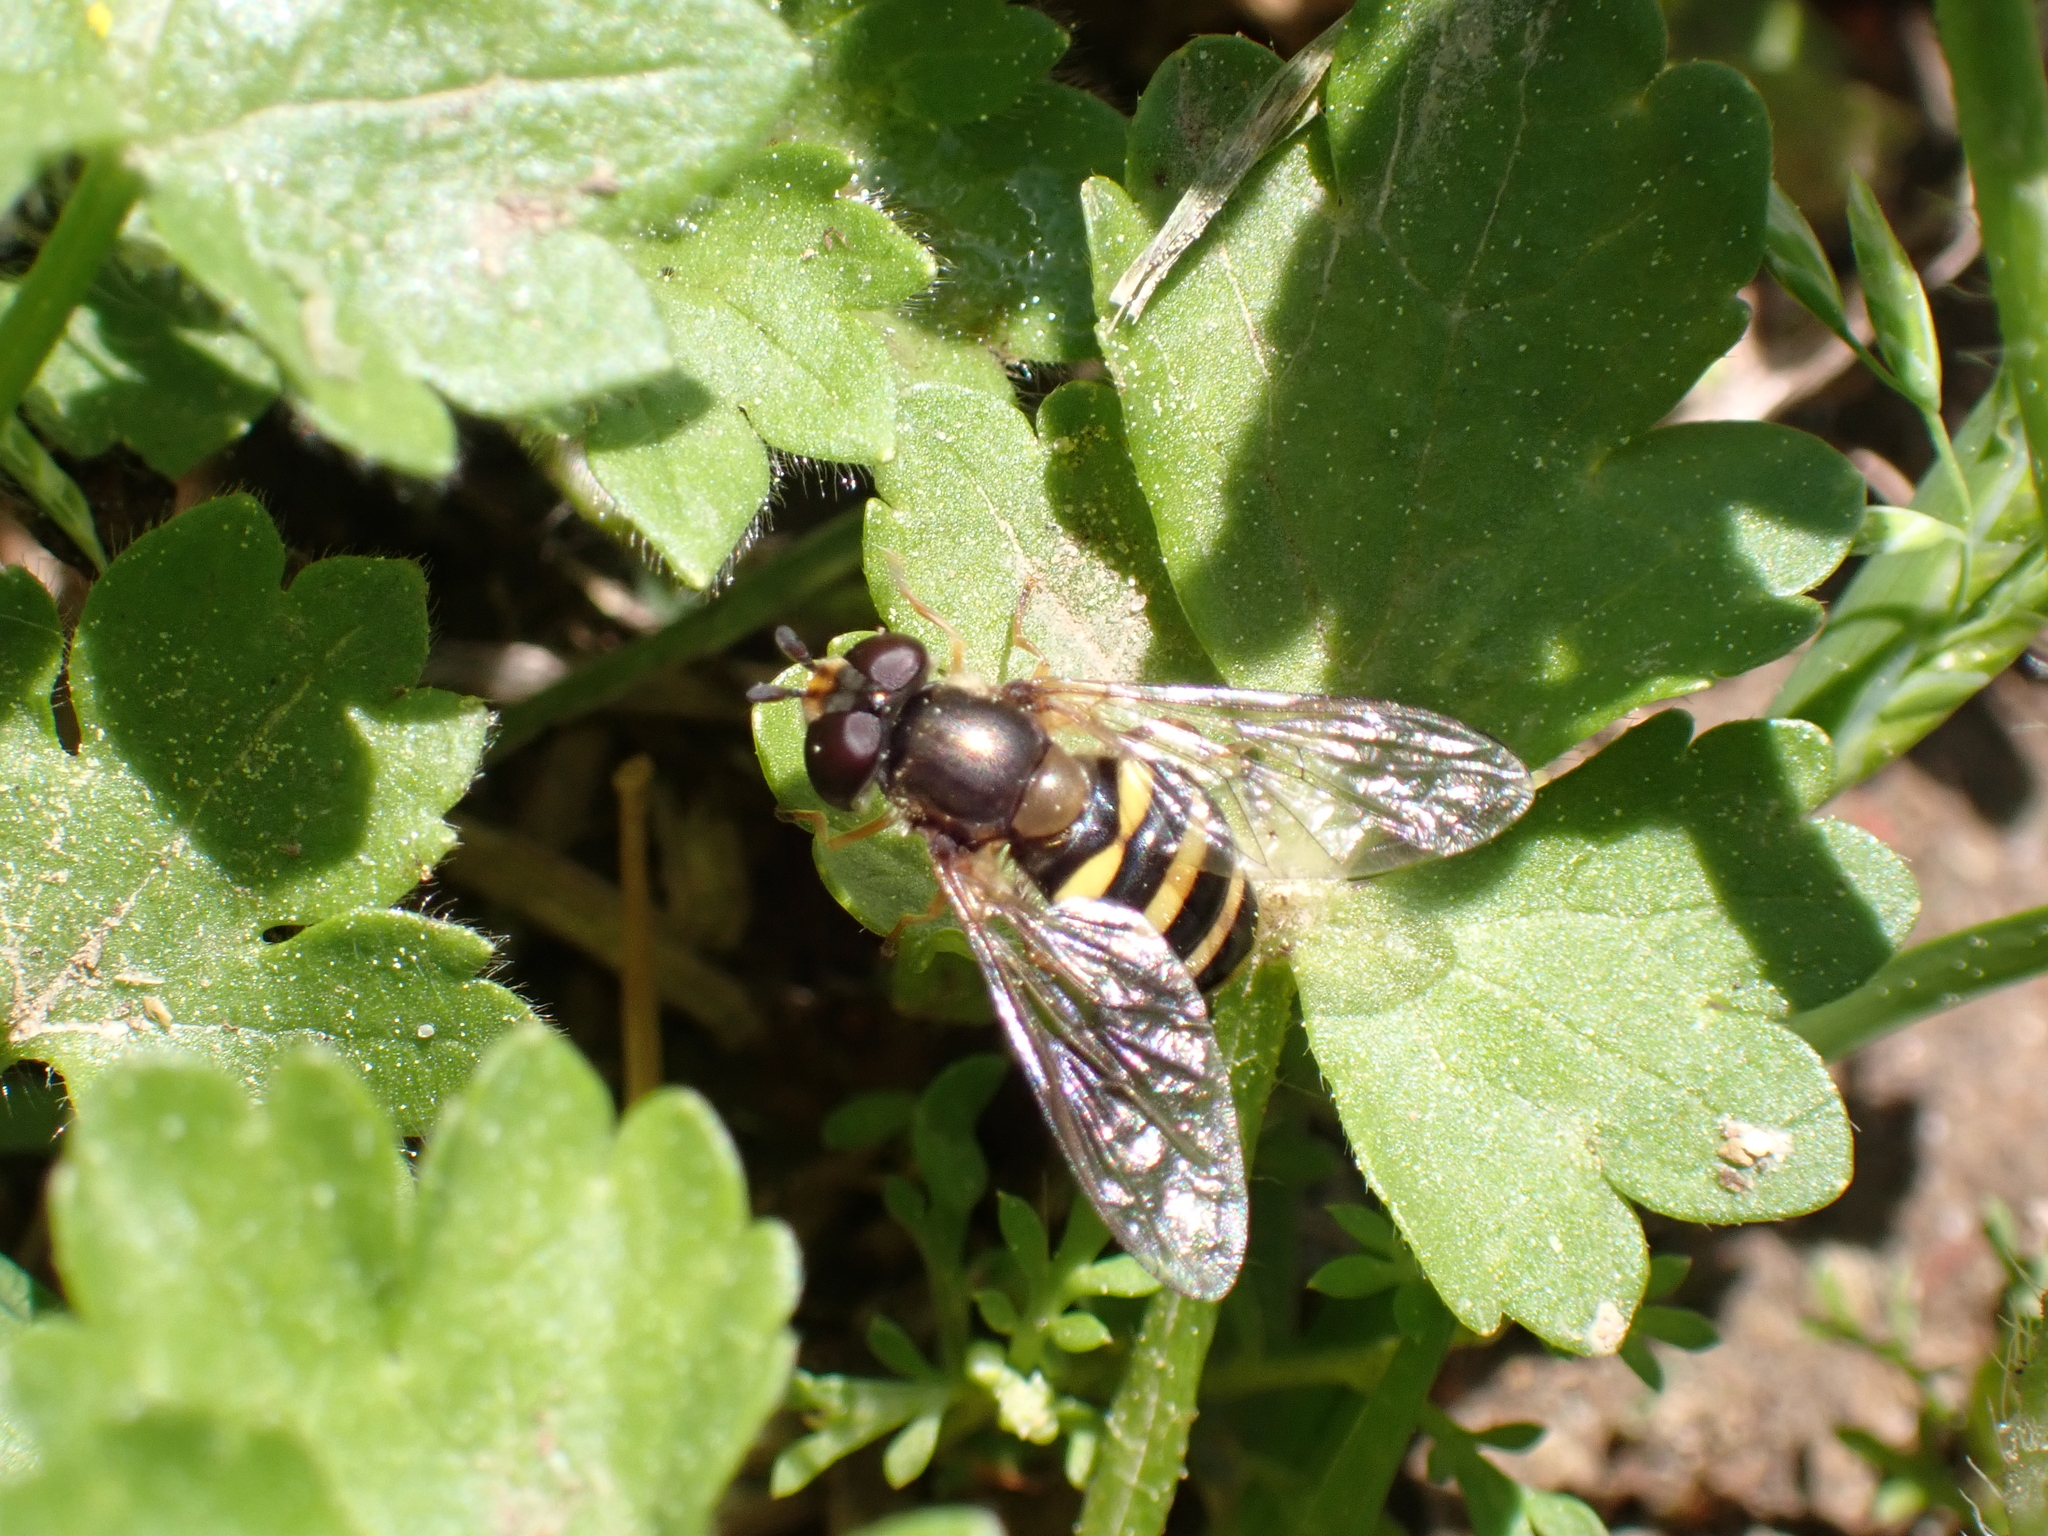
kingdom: Animalia
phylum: Arthropoda
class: Insecta
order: Diptera
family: Syrphidae
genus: Eupeodes
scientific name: Eupeodes
